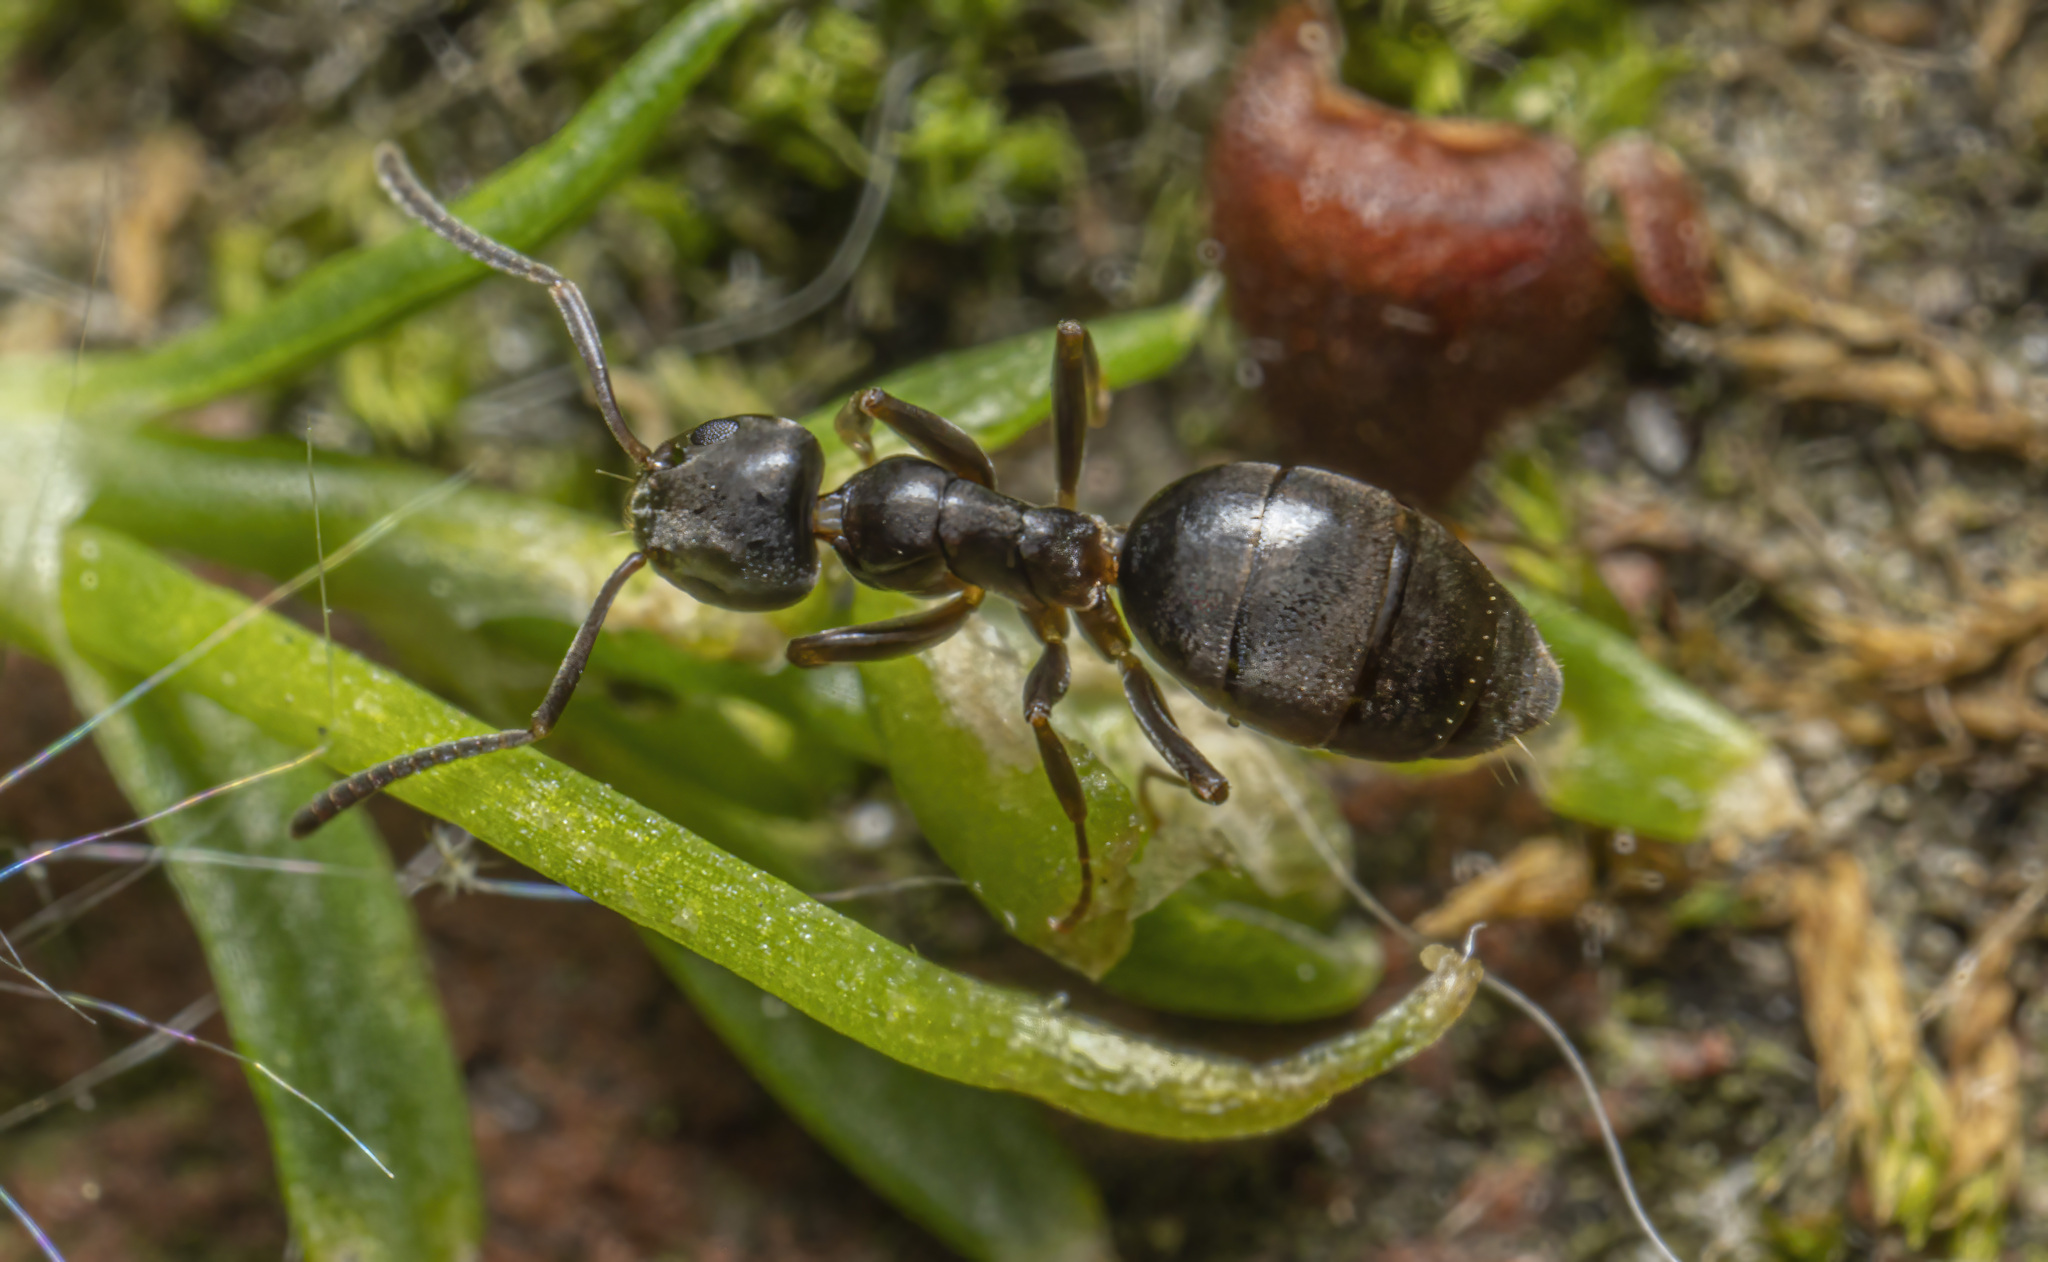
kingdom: Animalia
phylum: Arthropoda
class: Insecta
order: Hymenoptera
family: Formicidae
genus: Tapinoma
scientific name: Tapinoma sessile
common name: Odorous house ant
